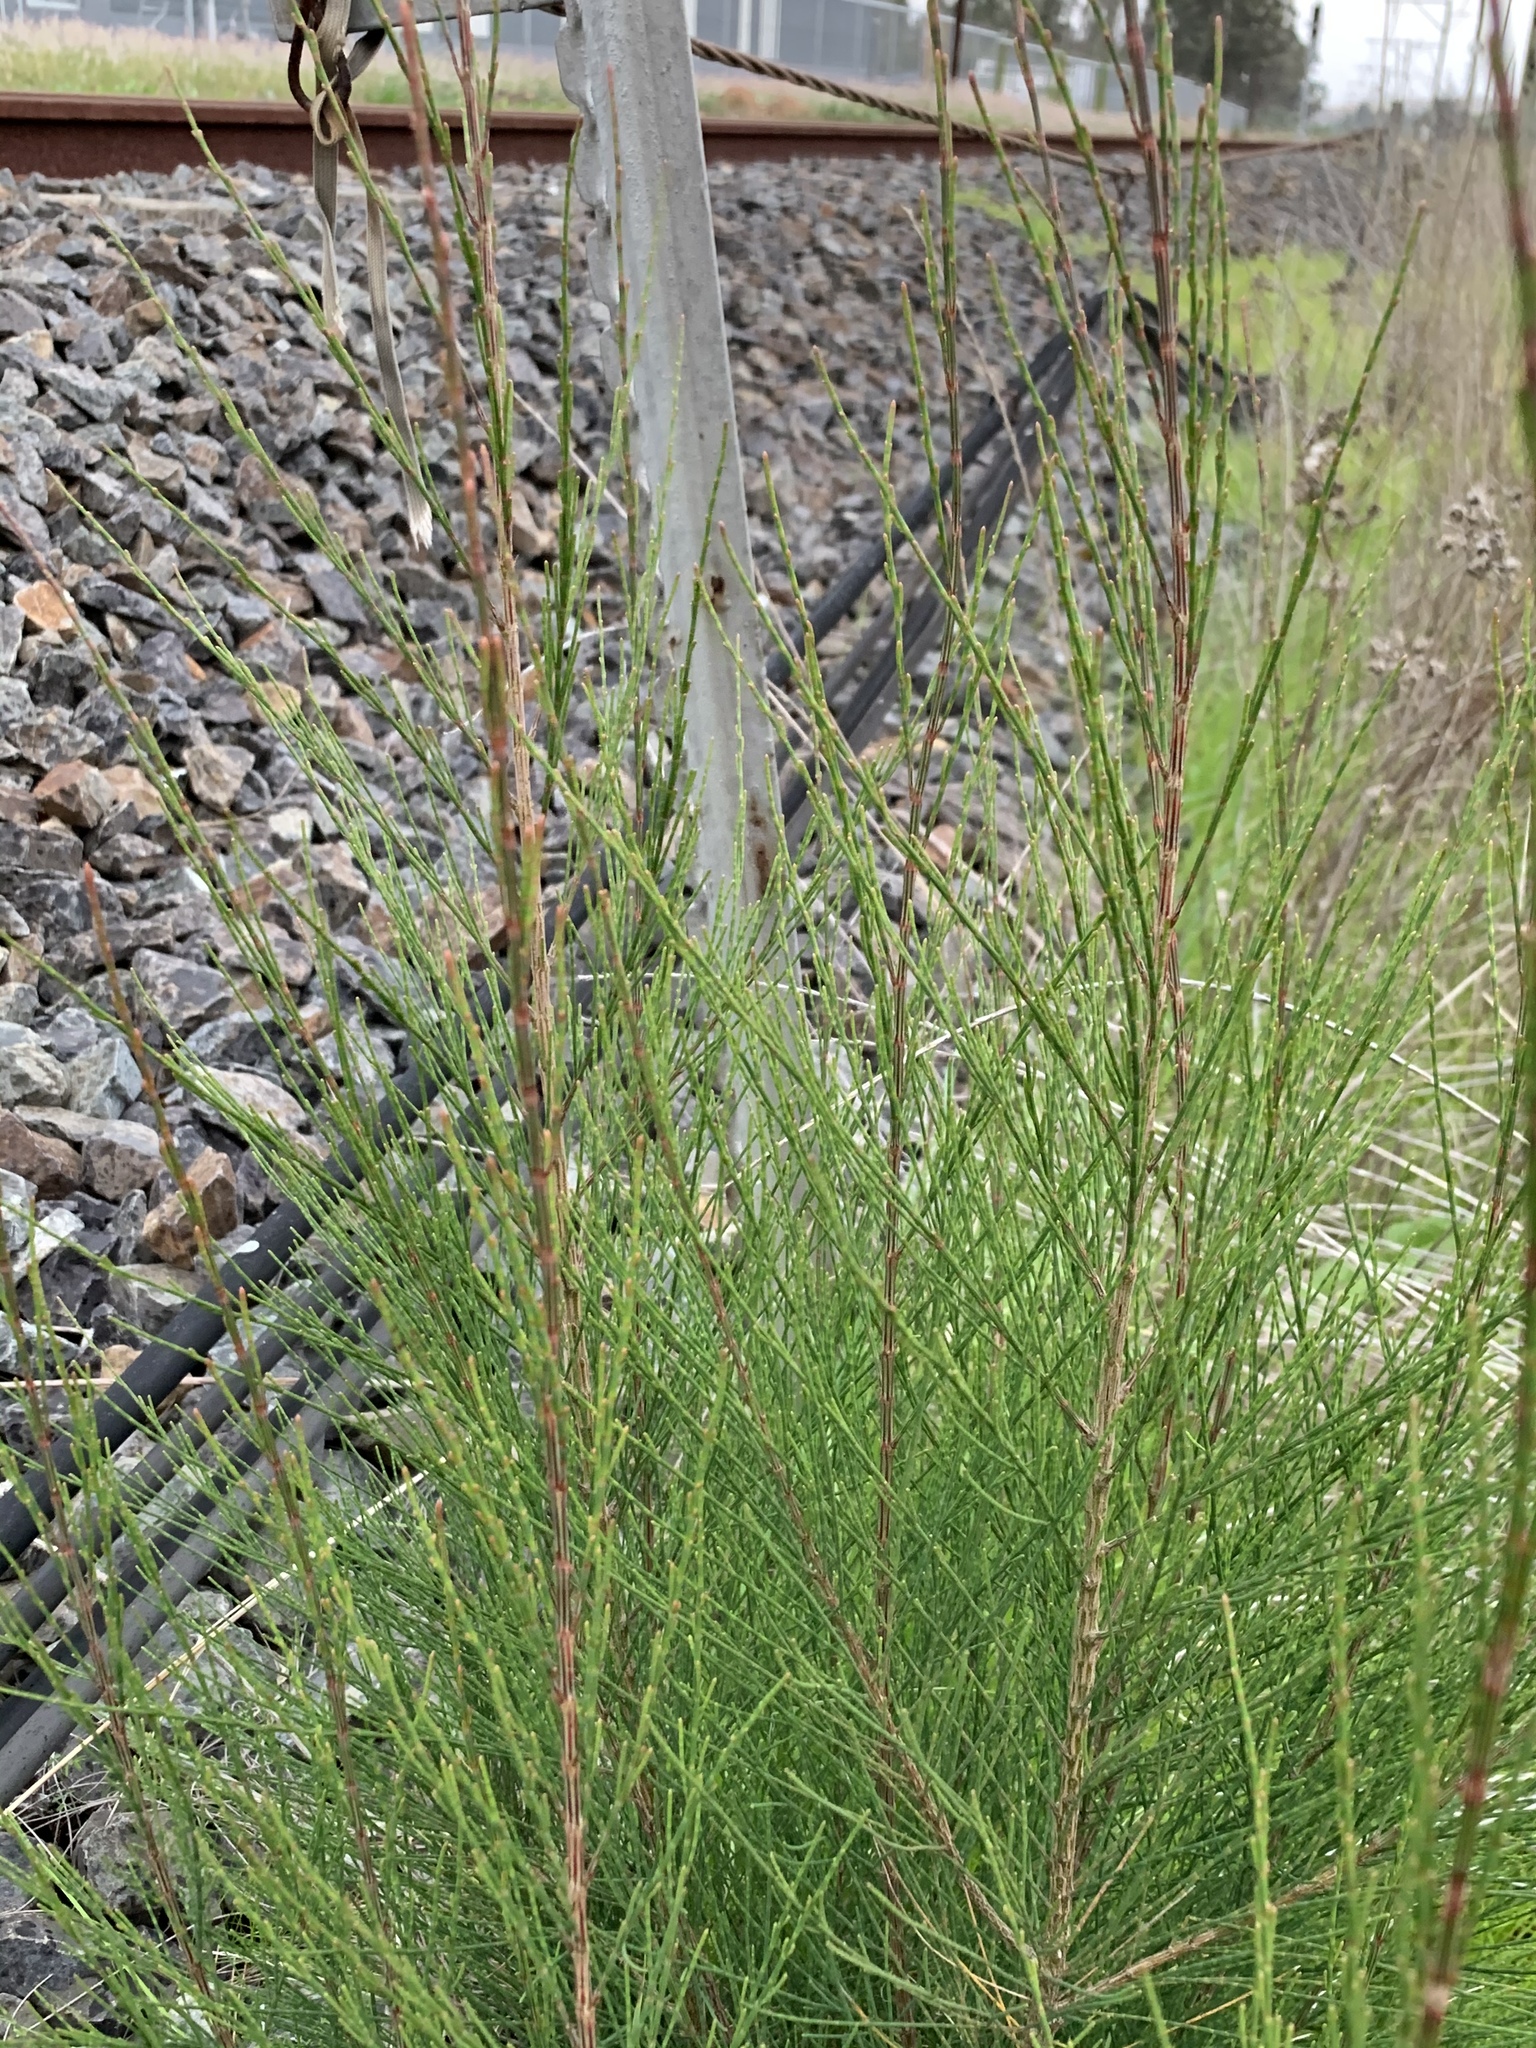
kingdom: Plantae
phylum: Tracheophyta
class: Magnoliopsida
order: Fagales
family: Casuarinaceae
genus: Casuarina
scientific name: Casuarina cunninghamiana
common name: River sheoak
